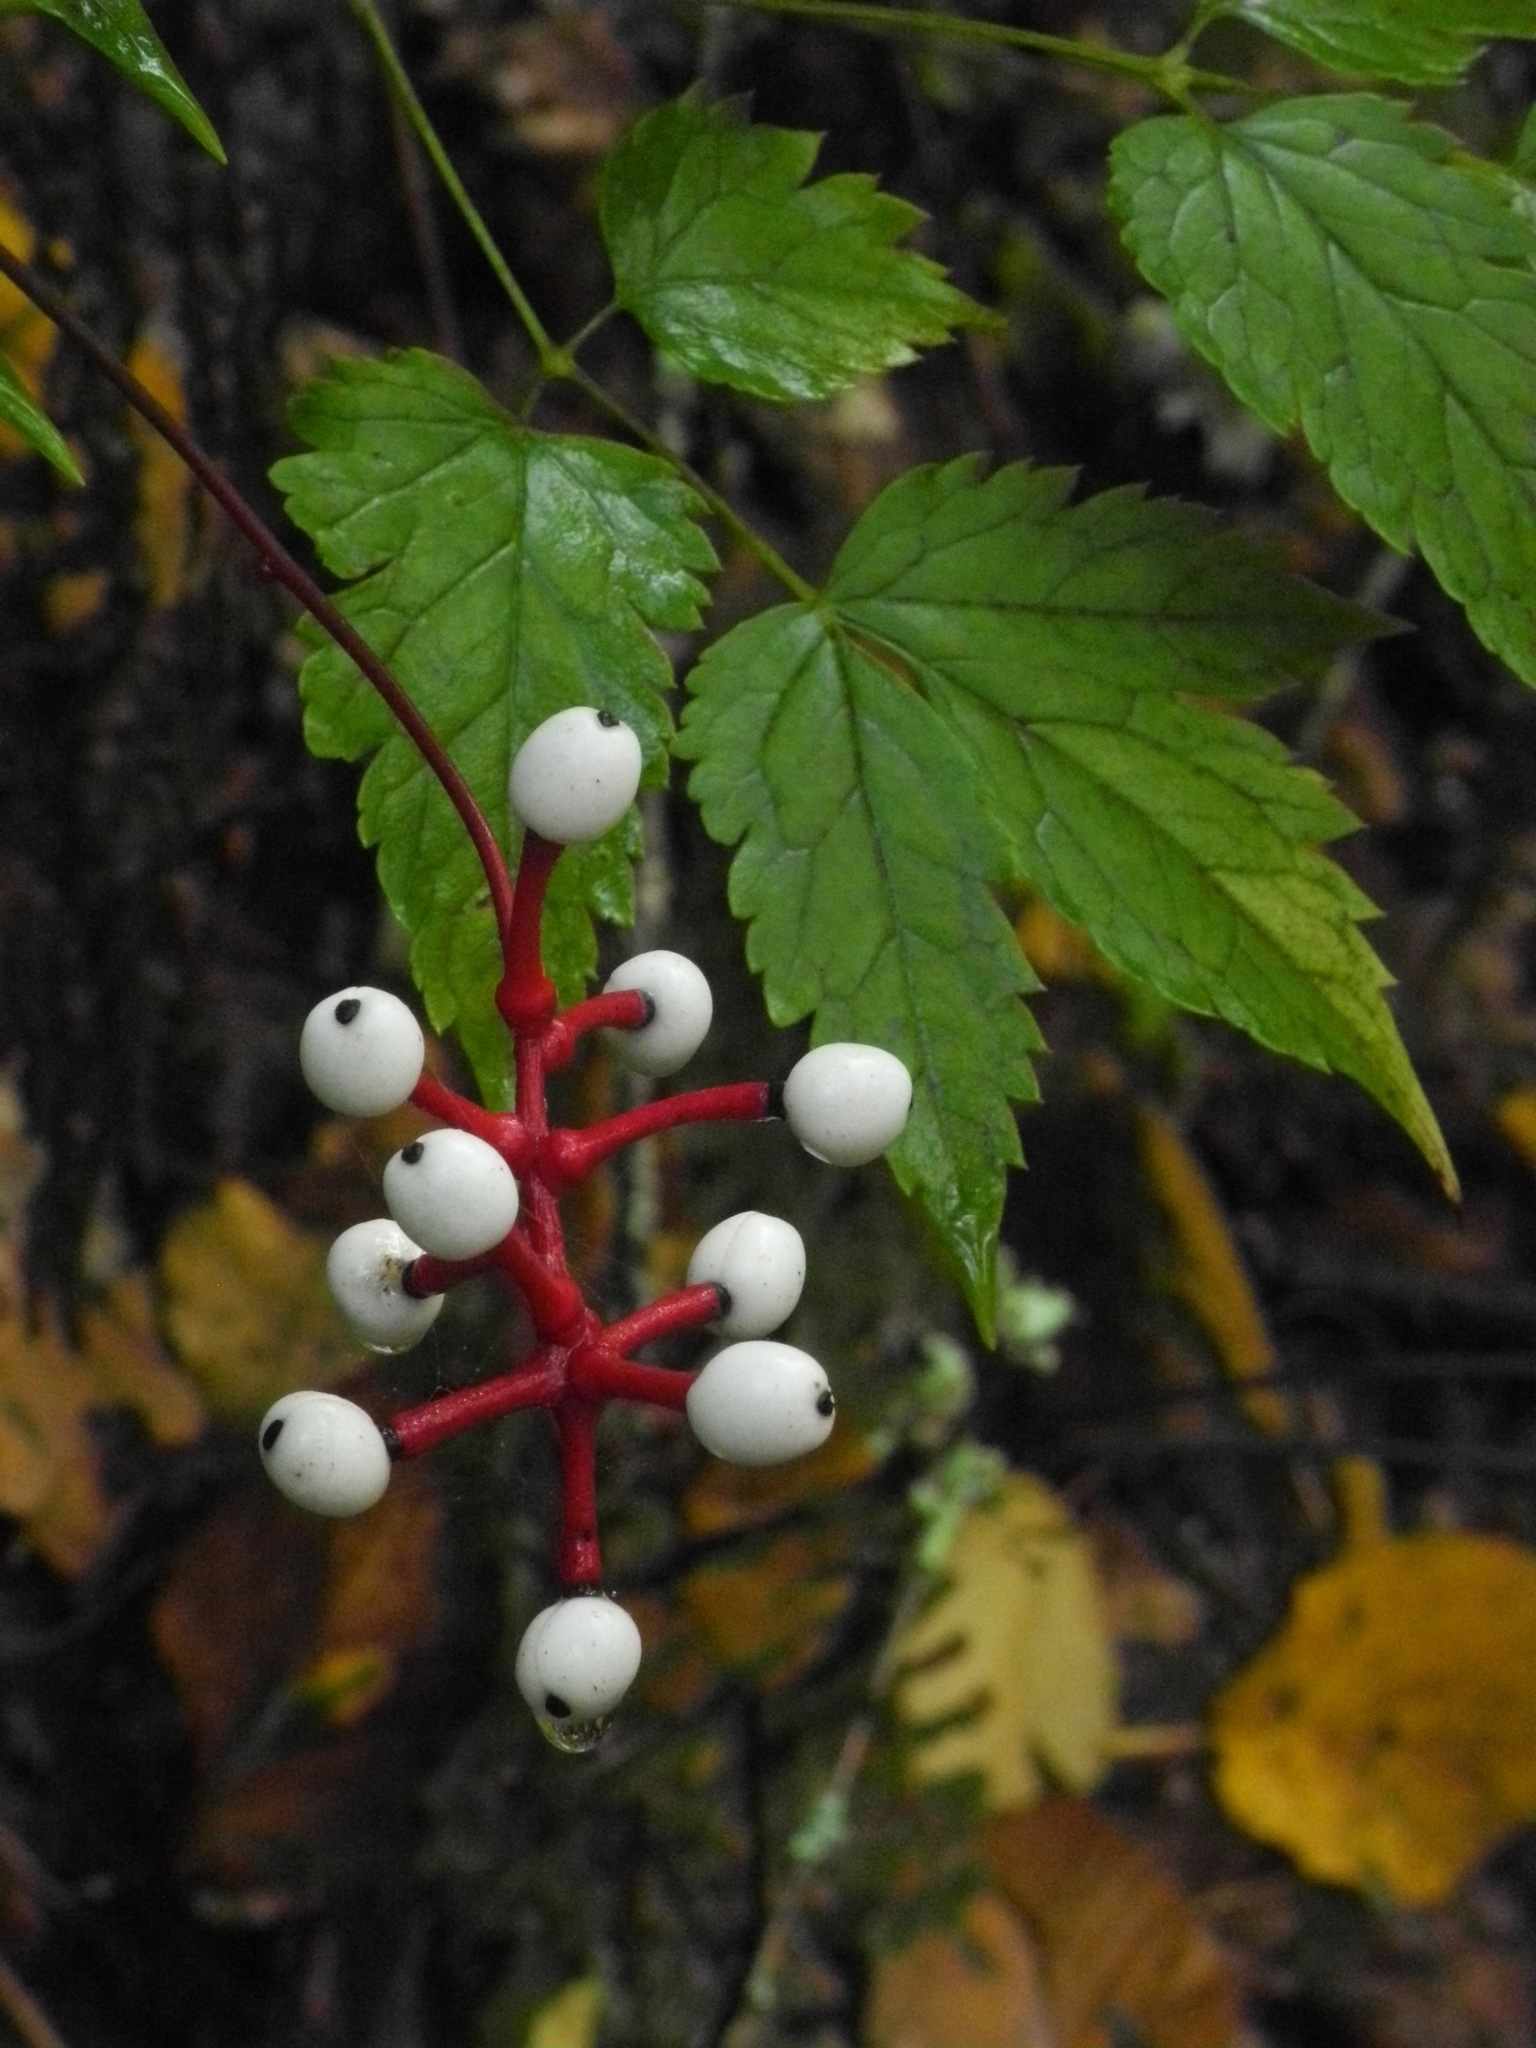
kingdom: Plantae
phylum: Tracheophyta
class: Magnoliopsida
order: Ranunculales
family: Ranunculaceae
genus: Actaea
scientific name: Actaea pachypoda
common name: Doll's-eyes
